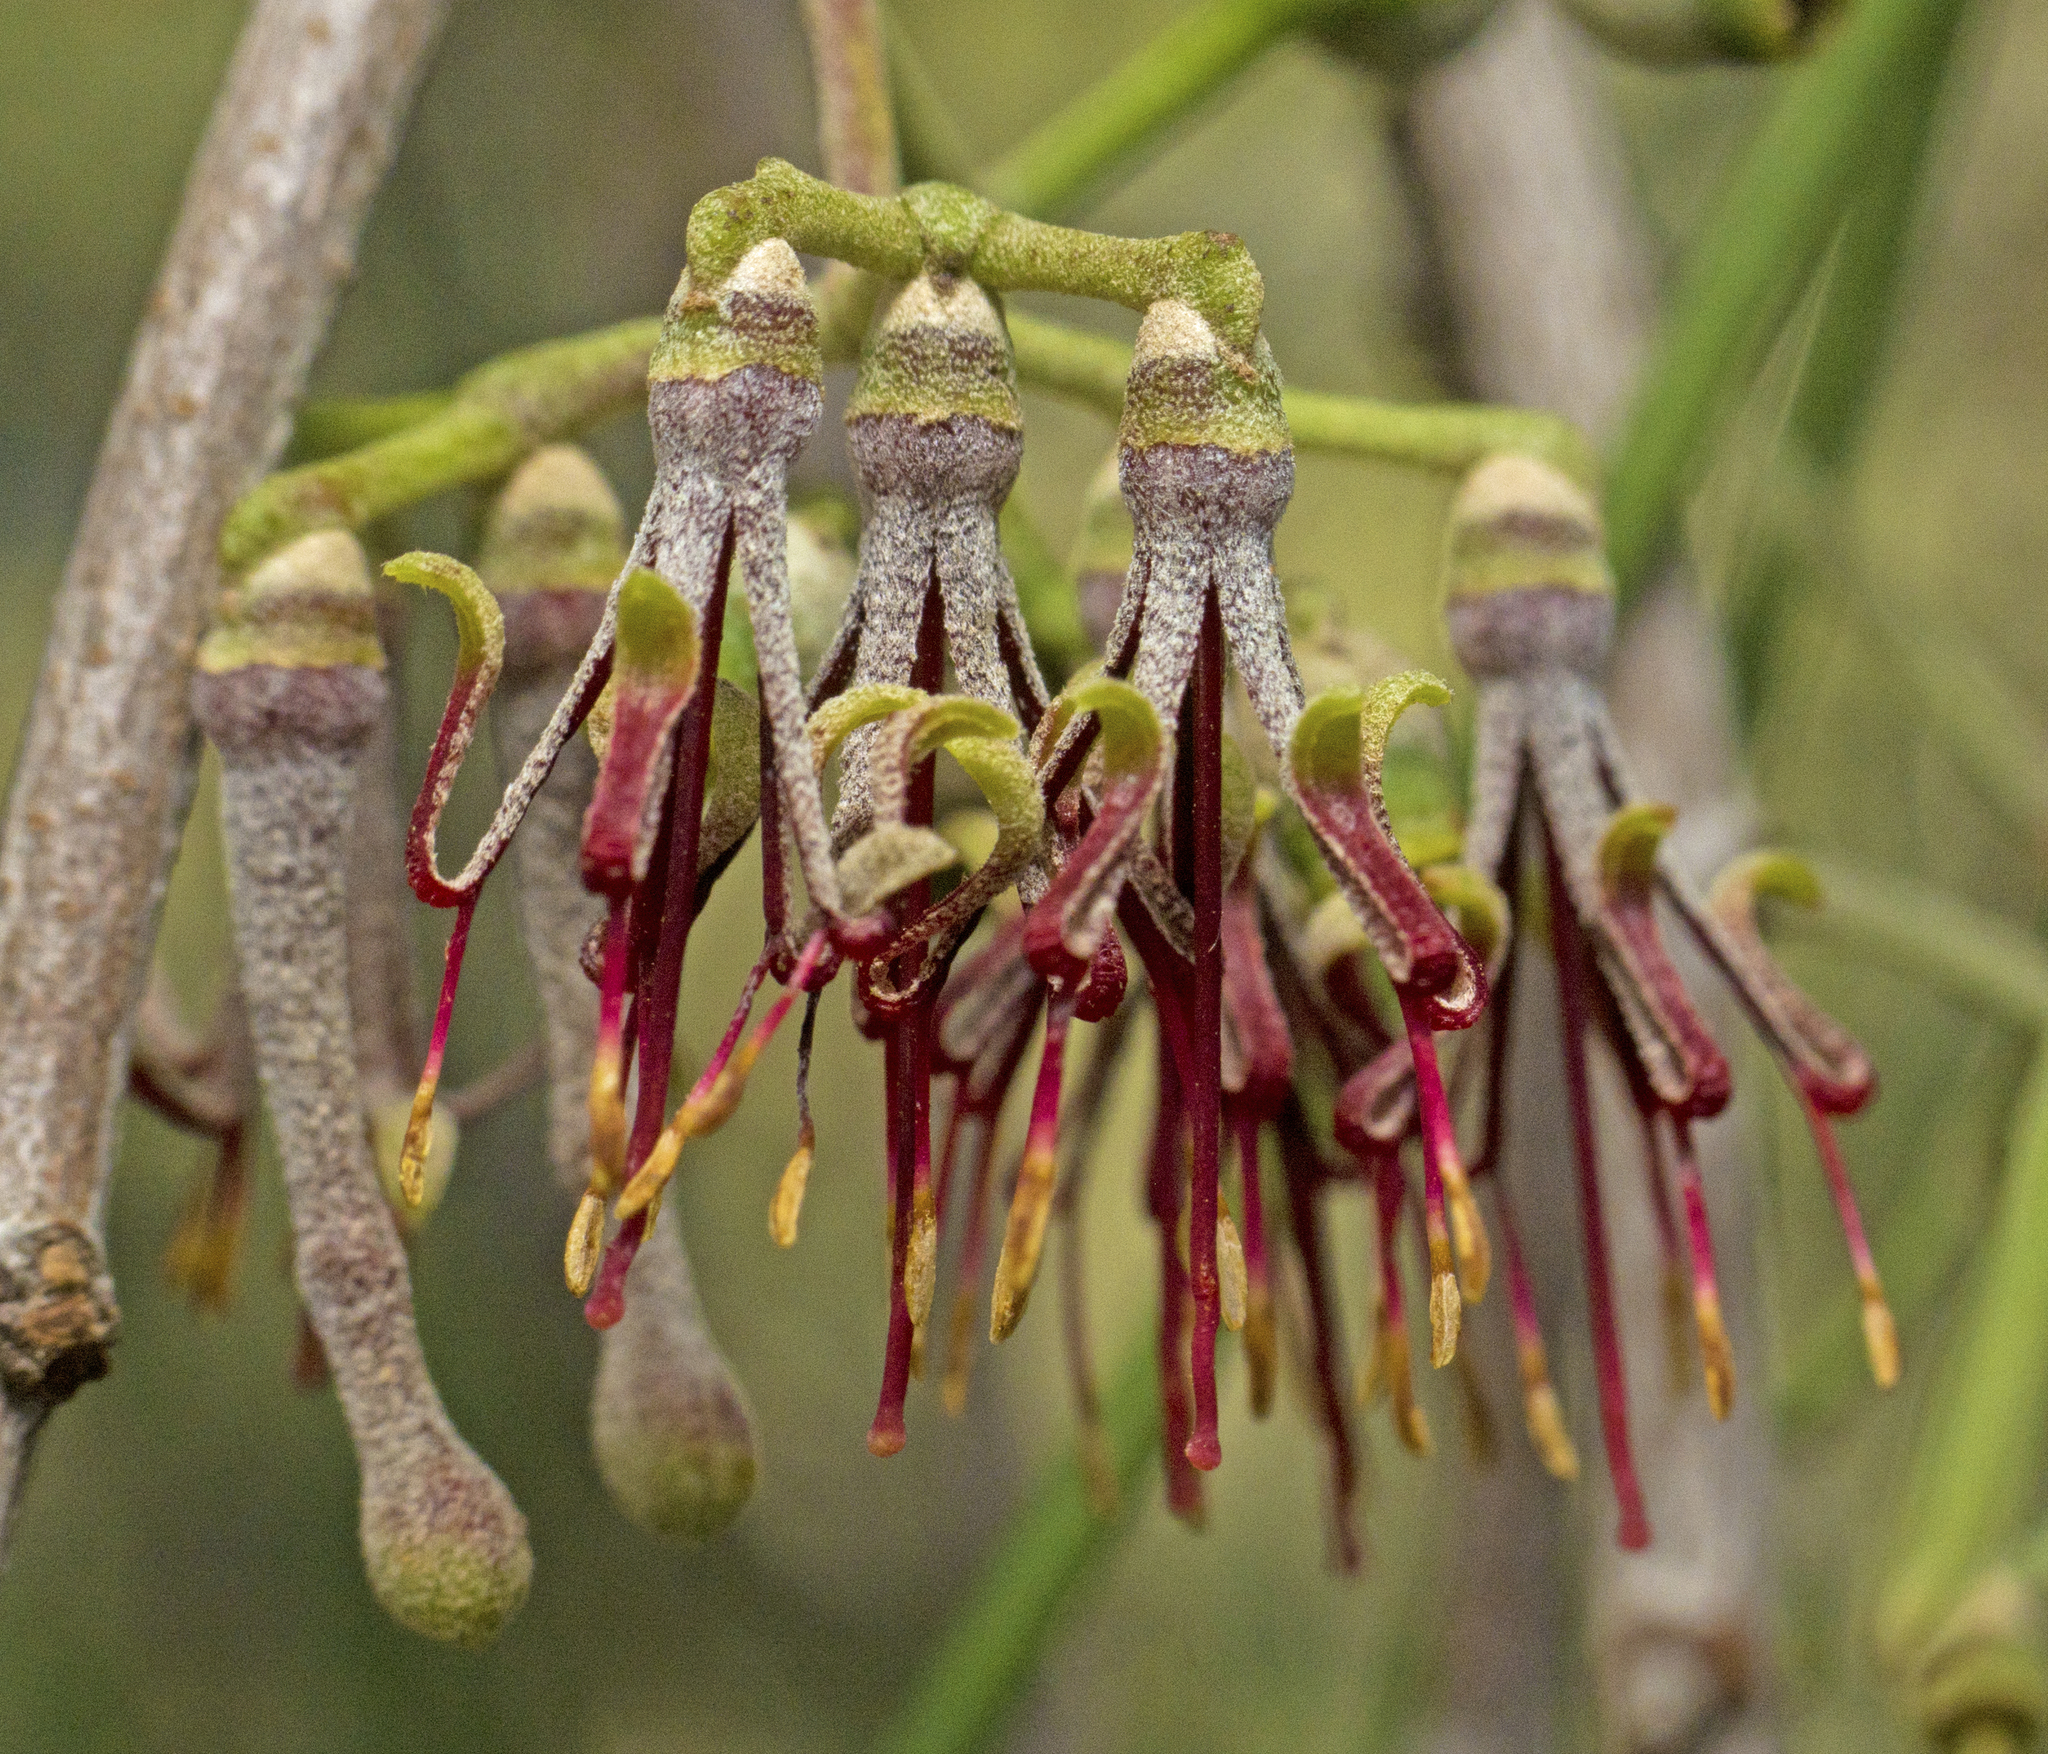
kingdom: Plantae
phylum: Tracheophyta
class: Magnoliopsida
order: Santalales
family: Loranthaceae
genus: Amyema
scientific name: Amyema cambagei
